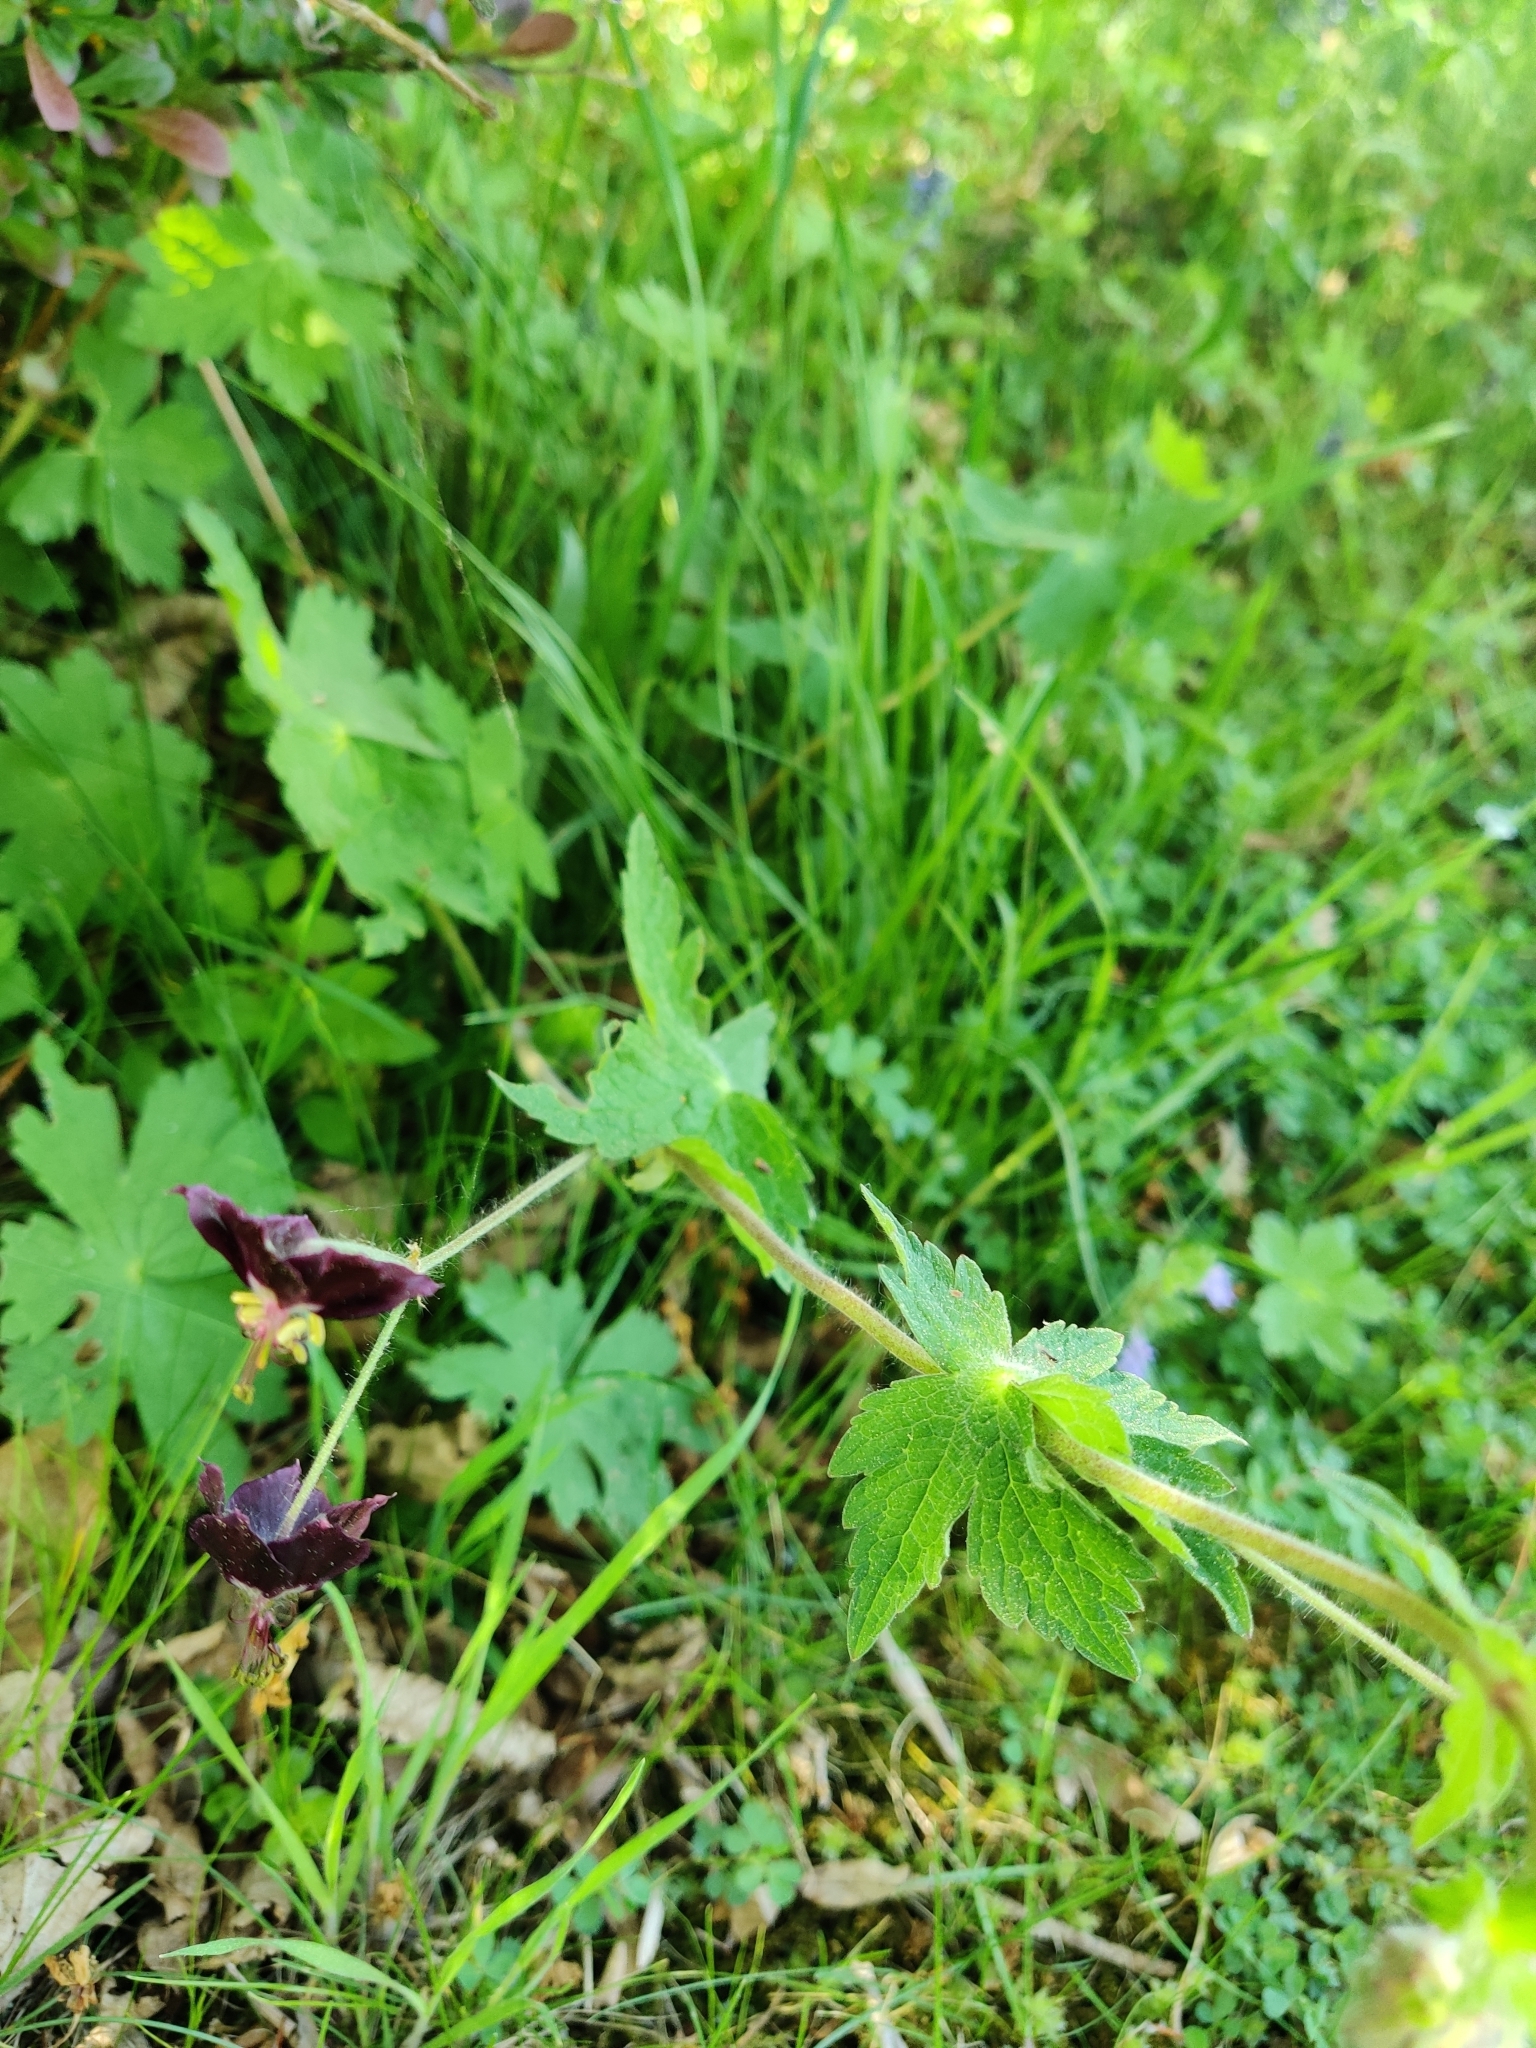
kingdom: Plantae
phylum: Tracheophyta
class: Magnoliopsida
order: Geraniales
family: Geraniaceae
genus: Geranium
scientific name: Geranium phaeum
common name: Dusky crane's-bill
